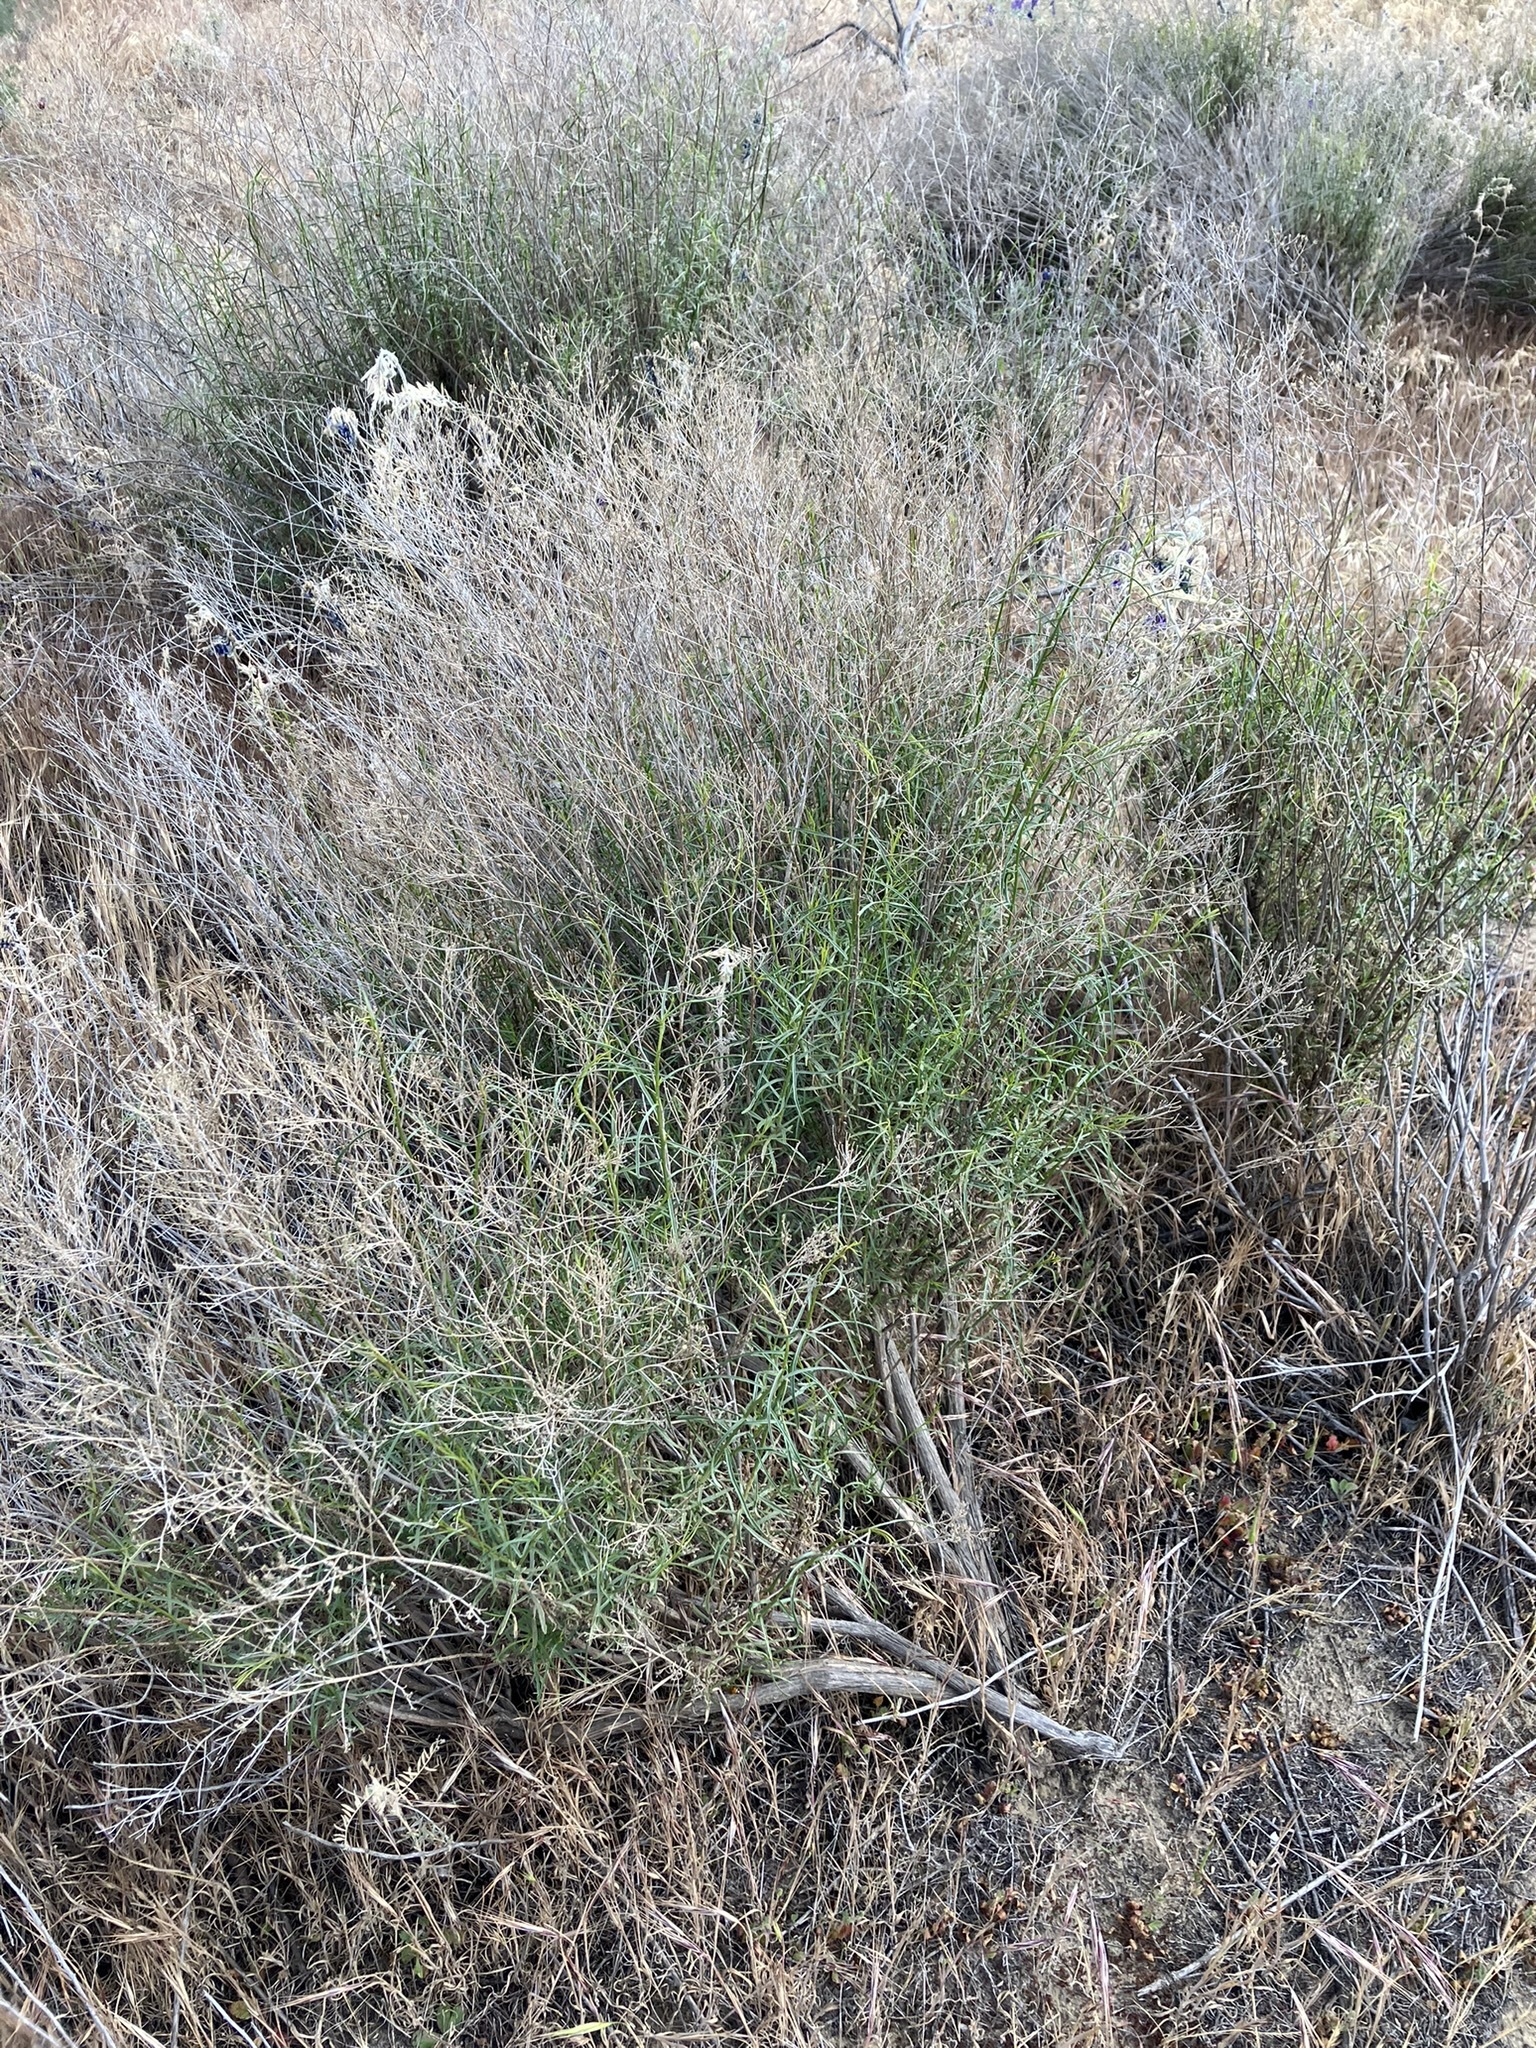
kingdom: Plantae
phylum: Tracheophyta
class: Magnoliopsida
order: Asterales
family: Asteraceae
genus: Gutierrezia
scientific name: Gutierrezia californica
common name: California matchweed
